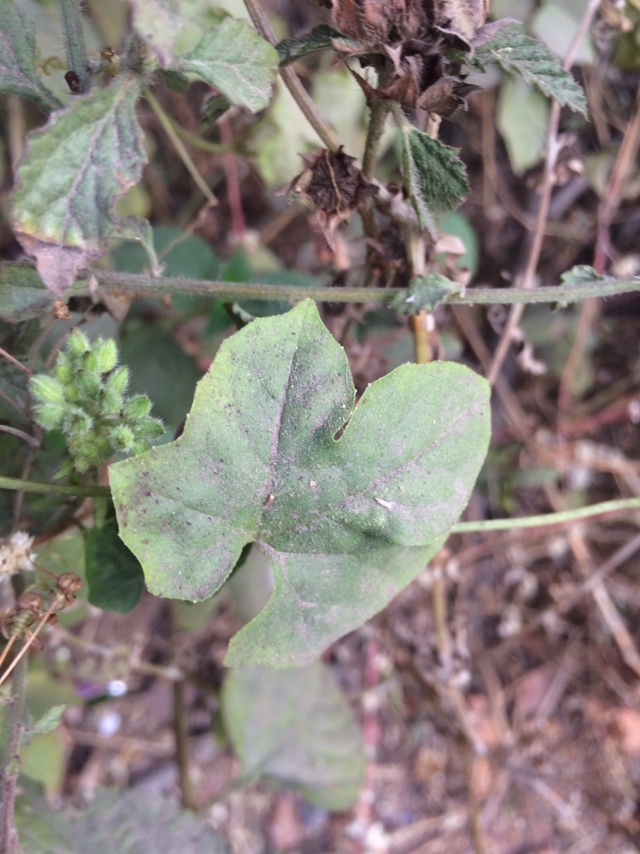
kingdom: Plantae
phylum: Tracheophyta
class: Magnoliopsida
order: Cucurbitales
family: Cucurbitaceae
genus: Diplocyclos
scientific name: Diplocyclos palmatus
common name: Striped-cucumber
